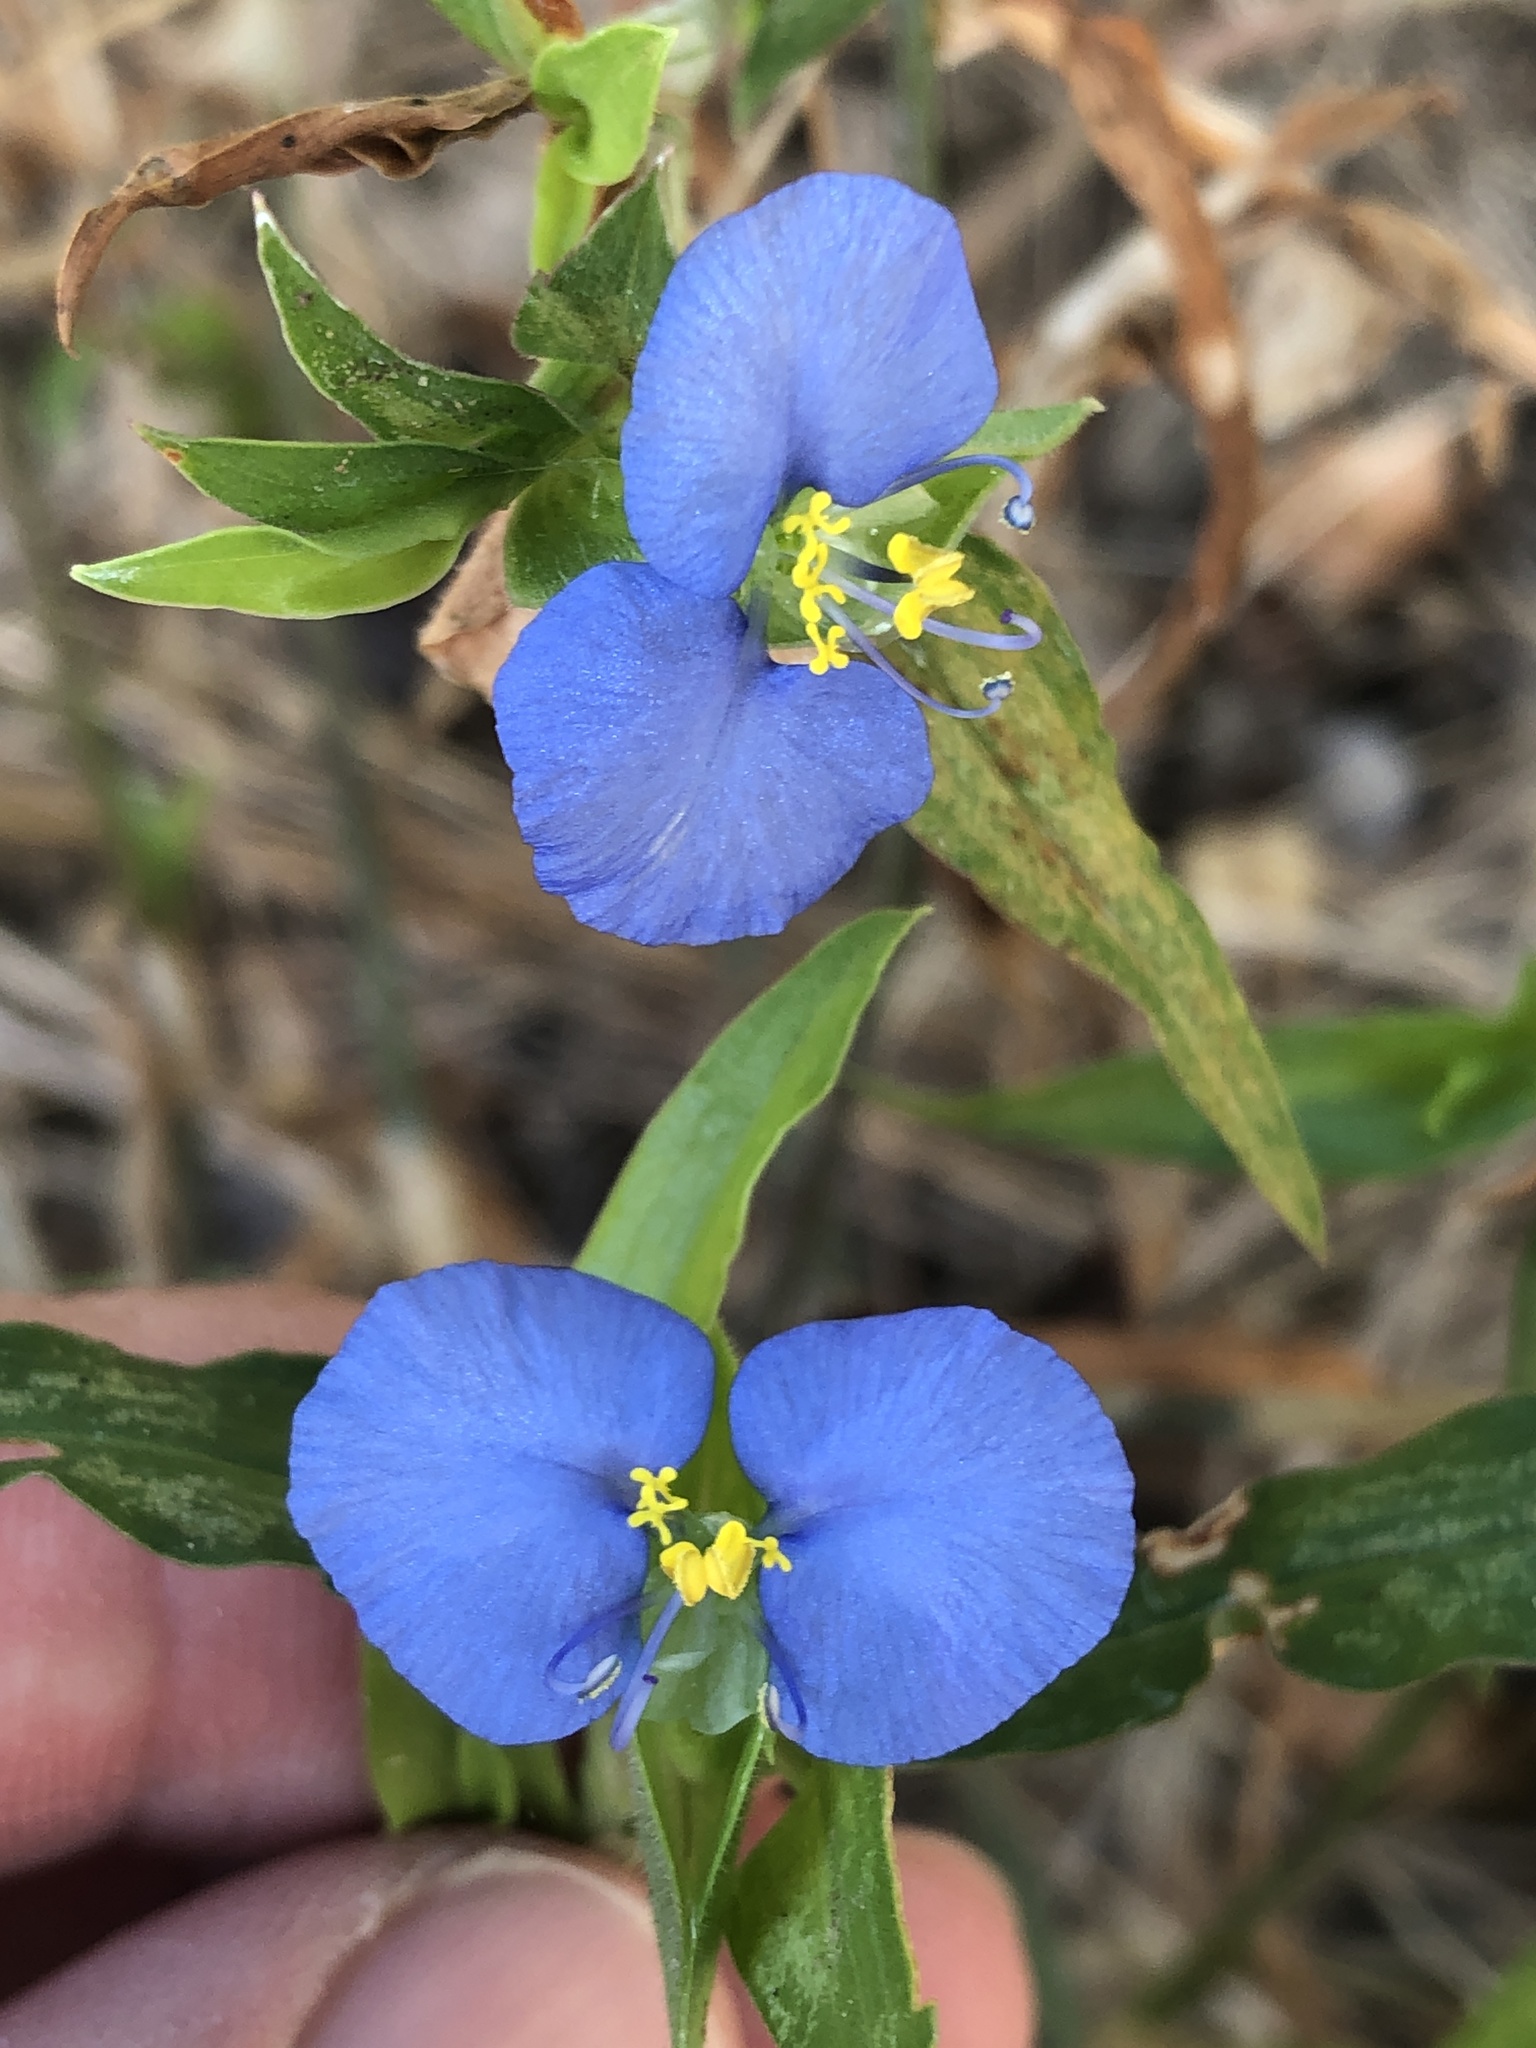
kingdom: Plantae
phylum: Tracheophyta
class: Liliopsida
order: Commelinales
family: Commelinaceae
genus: Commelina
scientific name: Commelina erecta
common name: Blousel blommetjie
